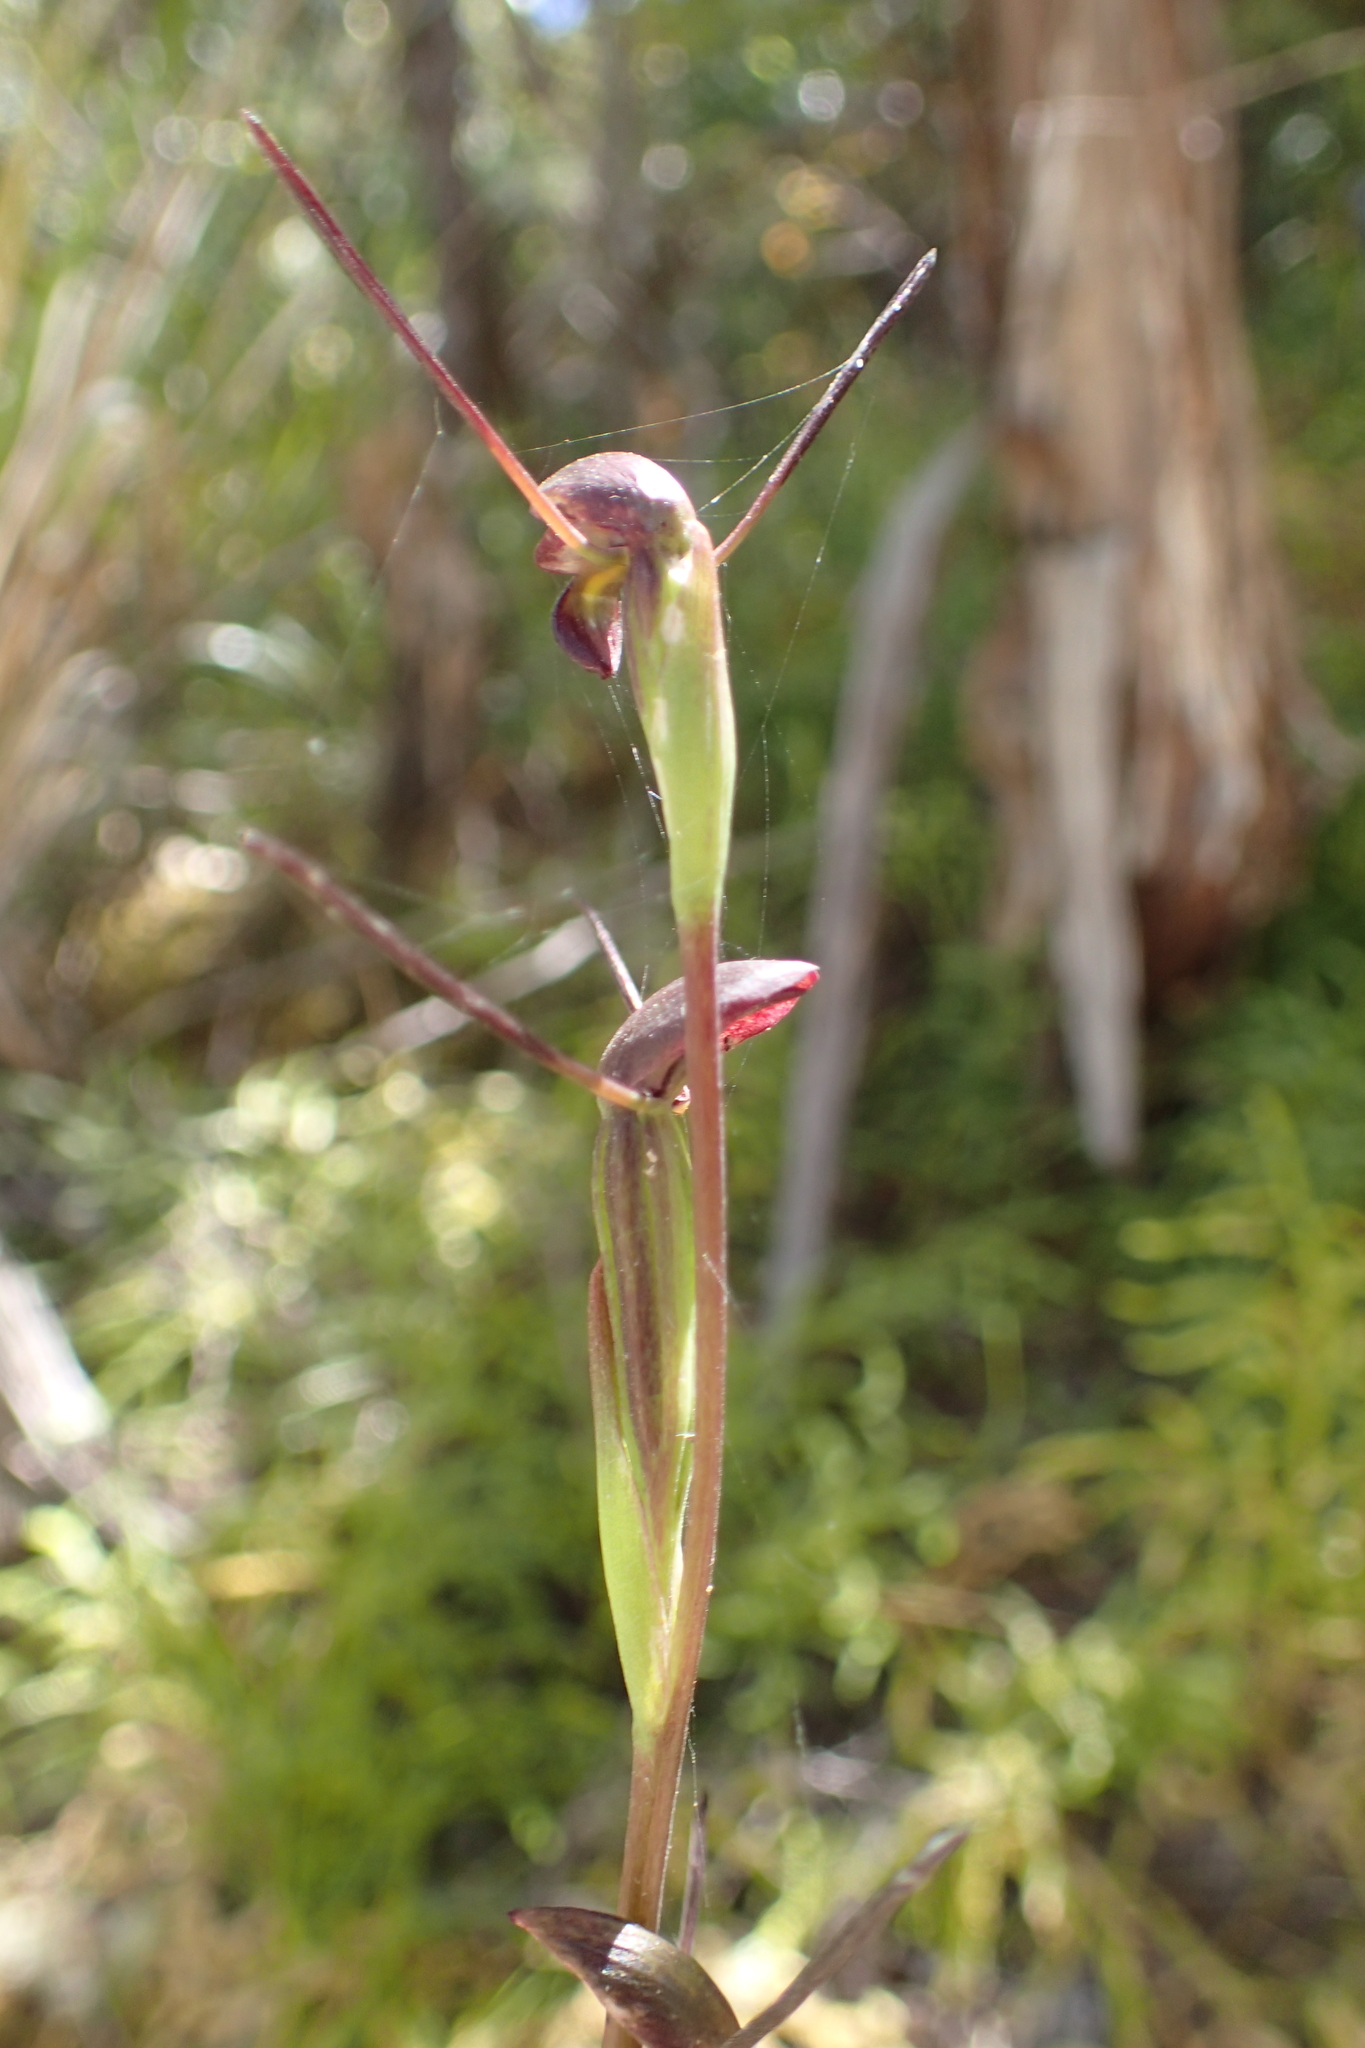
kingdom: Plantae
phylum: Tracheophyta
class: Liliopsida
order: Asparagales
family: Orchidaceae
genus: Orthoceras
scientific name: Orthoceras novae-zeelandiae
